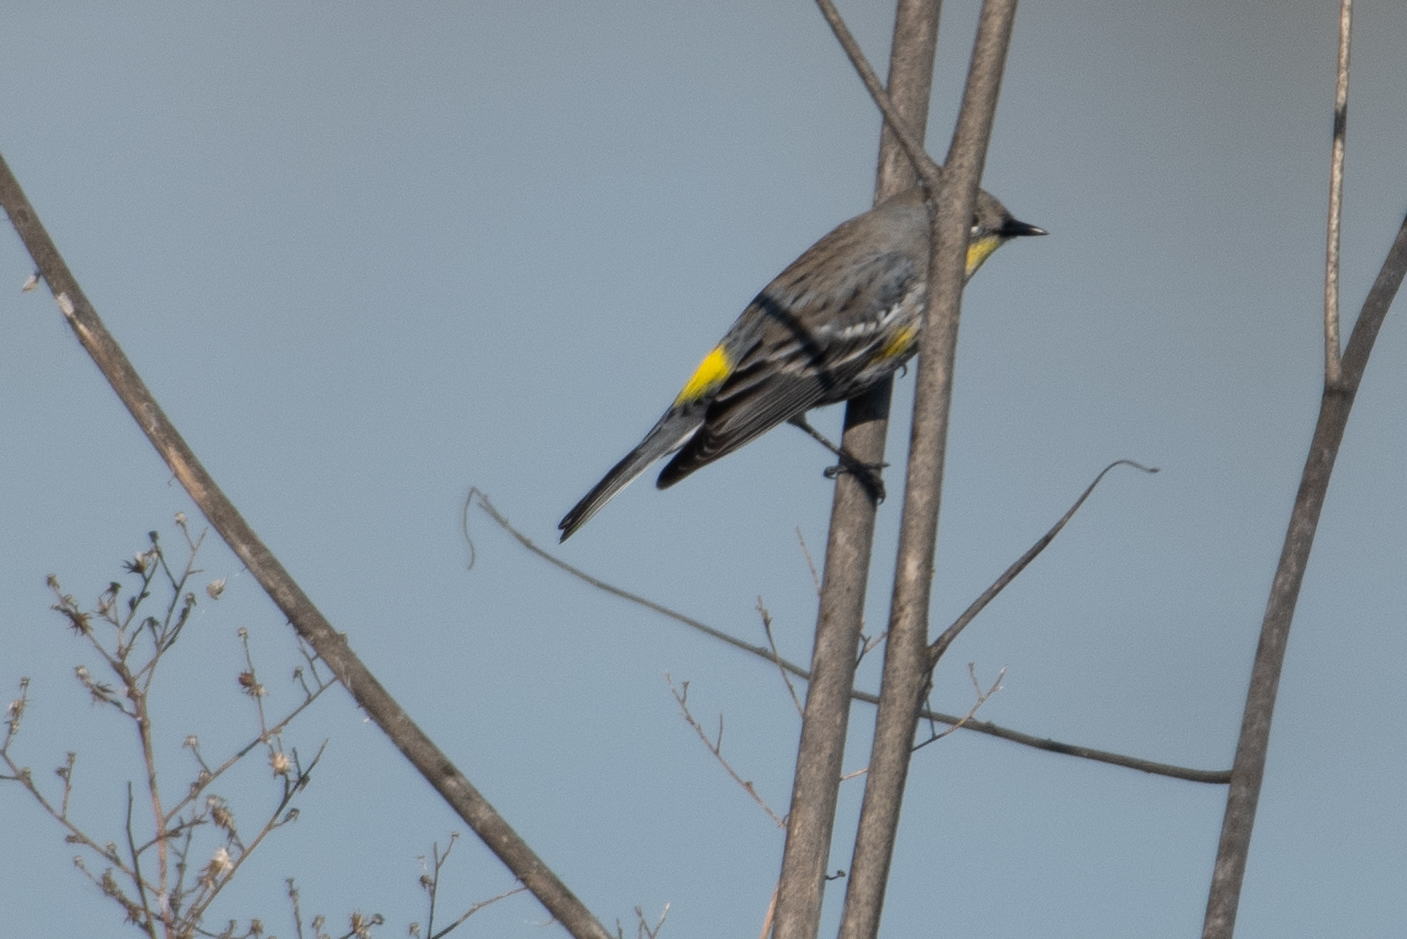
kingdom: Animalia
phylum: Chordata
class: Aves
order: Passeriformes
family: Parulidae
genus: Setophaga
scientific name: Setophaga coronata
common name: Myrtle warbler
